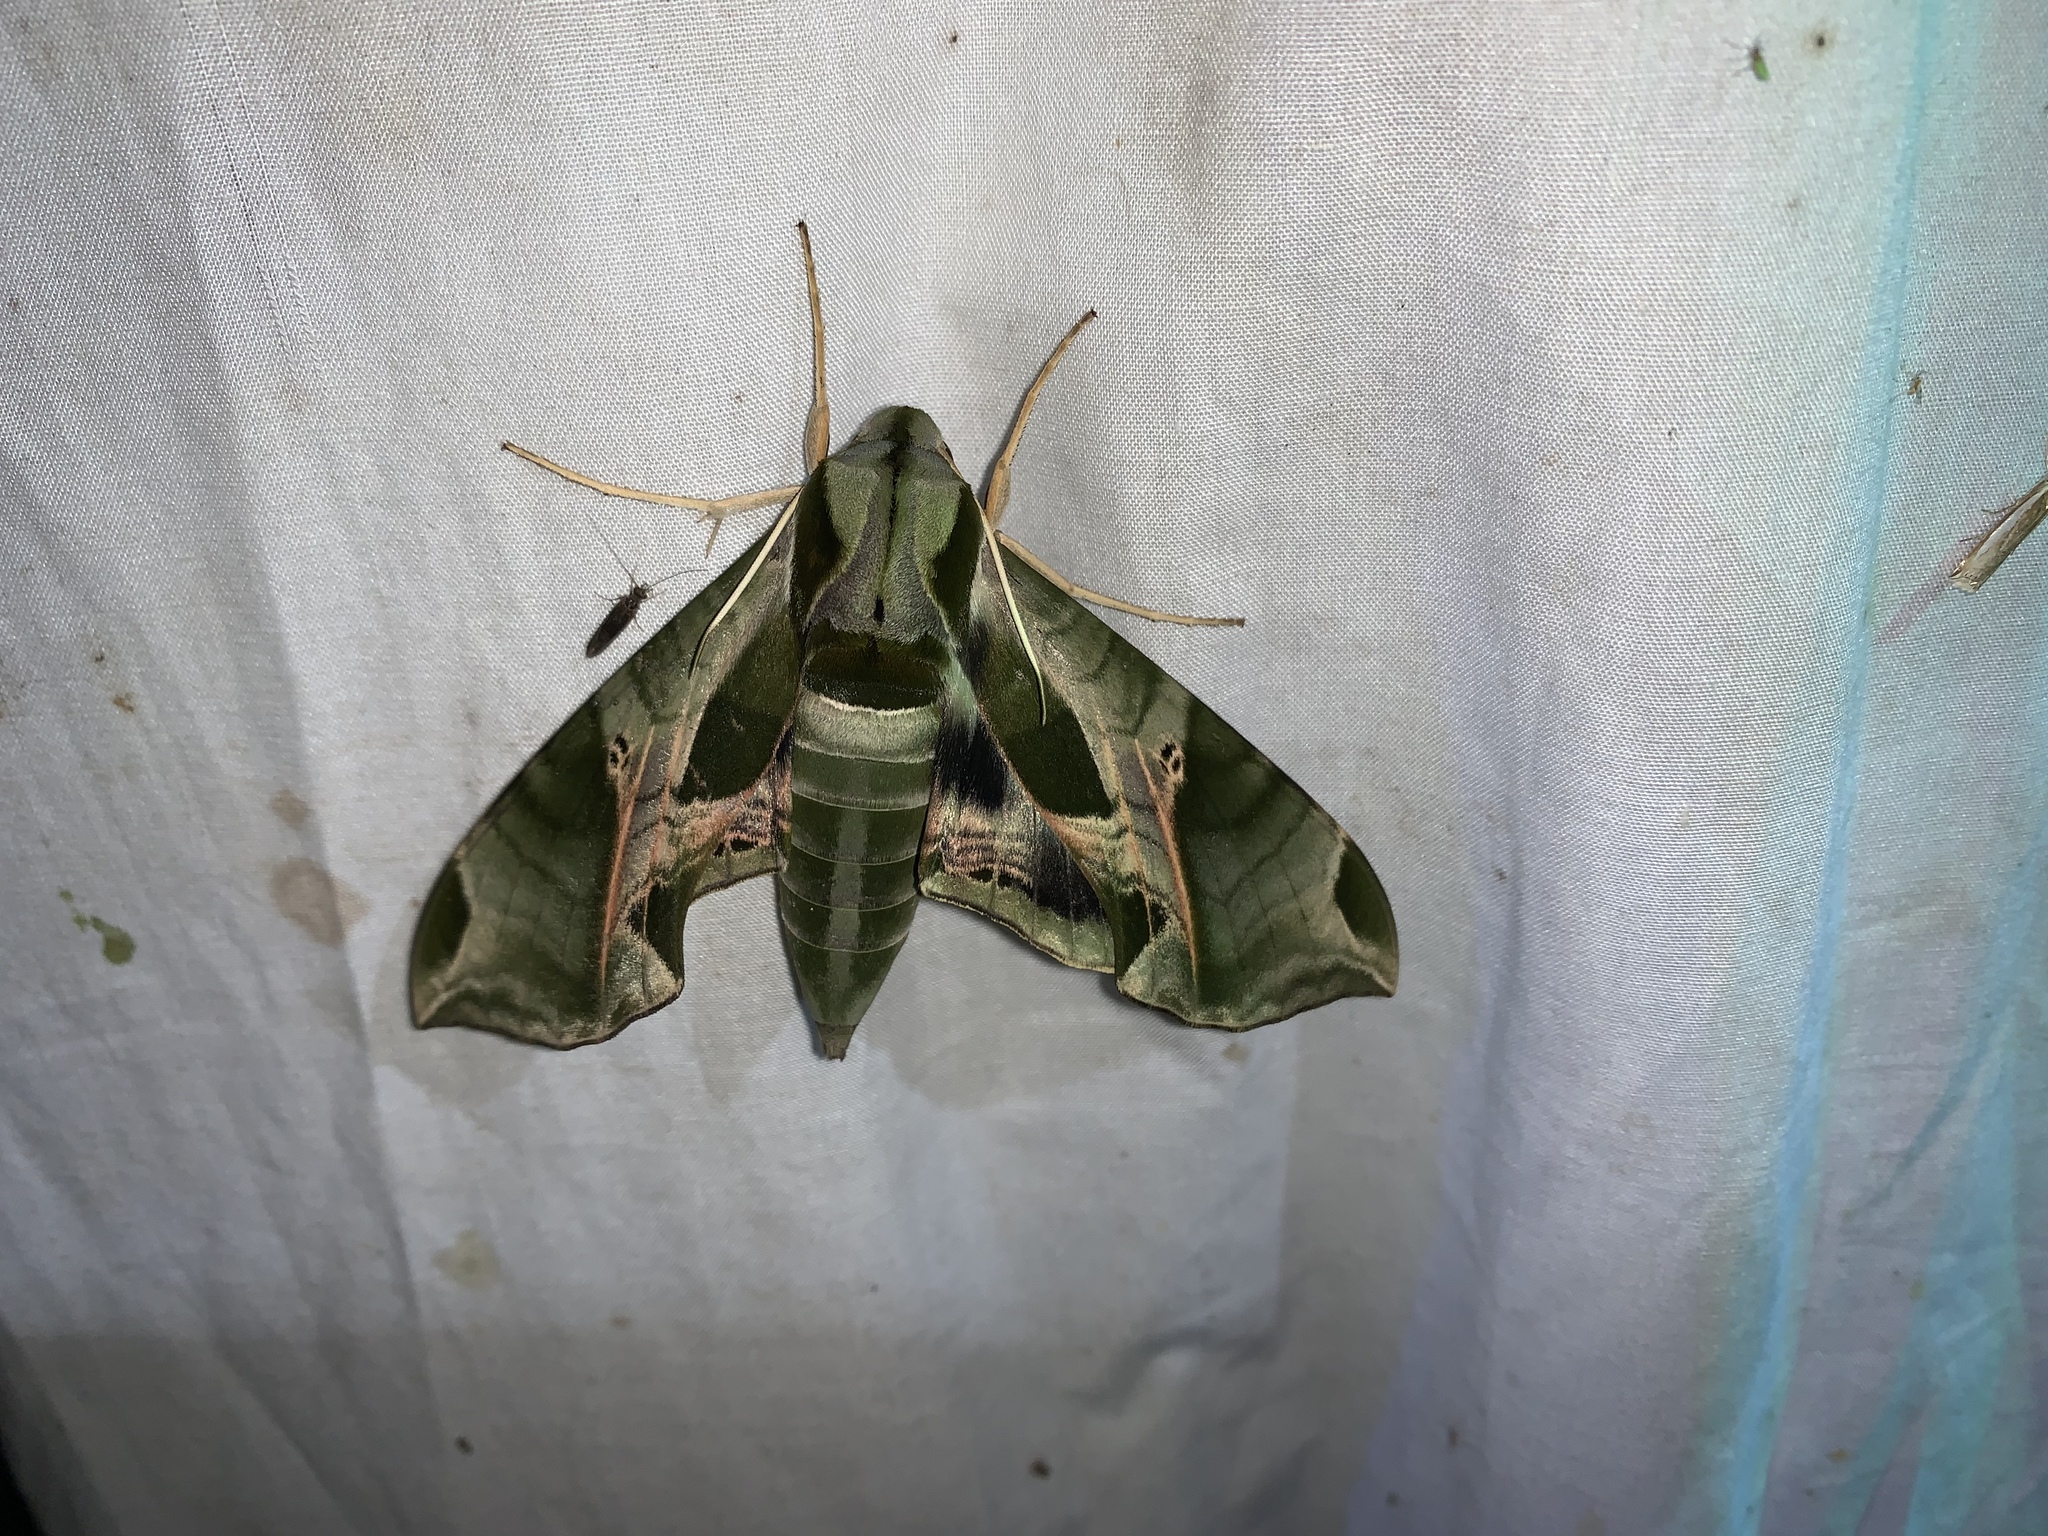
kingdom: Animalia
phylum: Arthropoda
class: Insecta
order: Lepidoptera
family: Sphingidae
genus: Eumorpha
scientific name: Eumorpha pandorus
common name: Pandora sphinx
